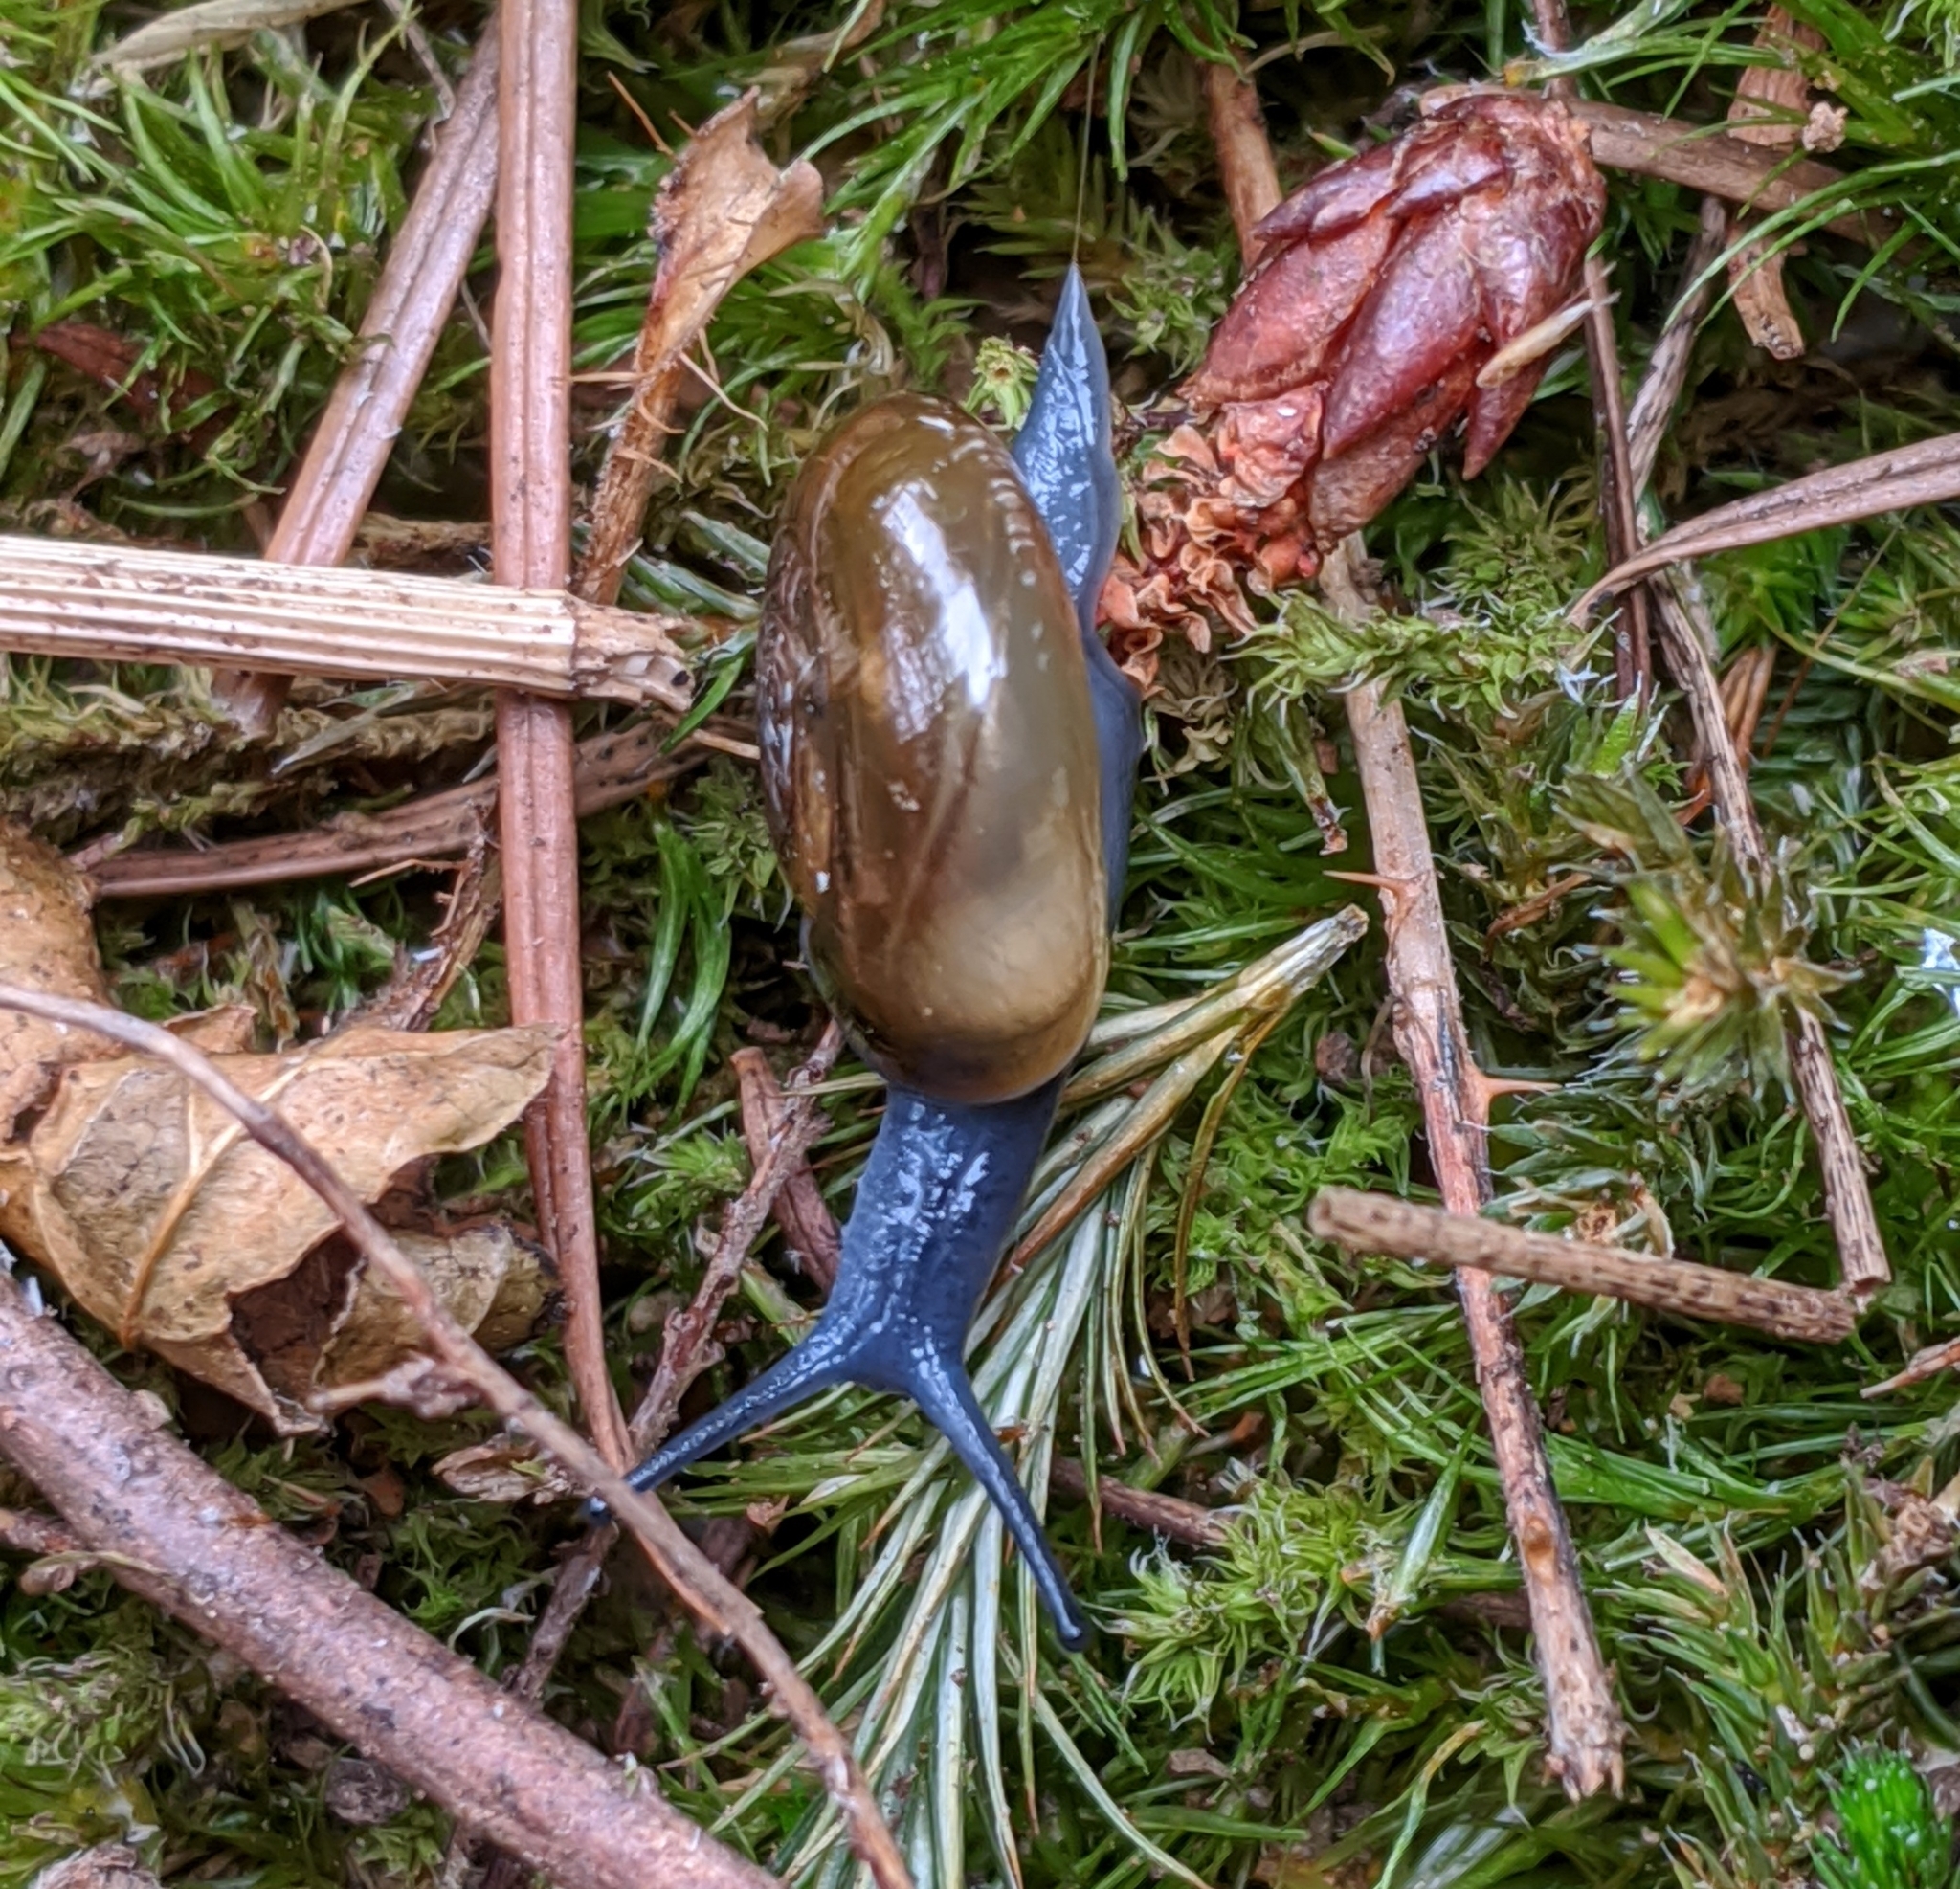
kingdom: Animalia
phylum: Mollusca
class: Gastropoda
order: Stylommatophora
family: Oxychilidae
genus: Oxychilus
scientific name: Oxychilus draparnaudi
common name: Draparnaud's glass snail
